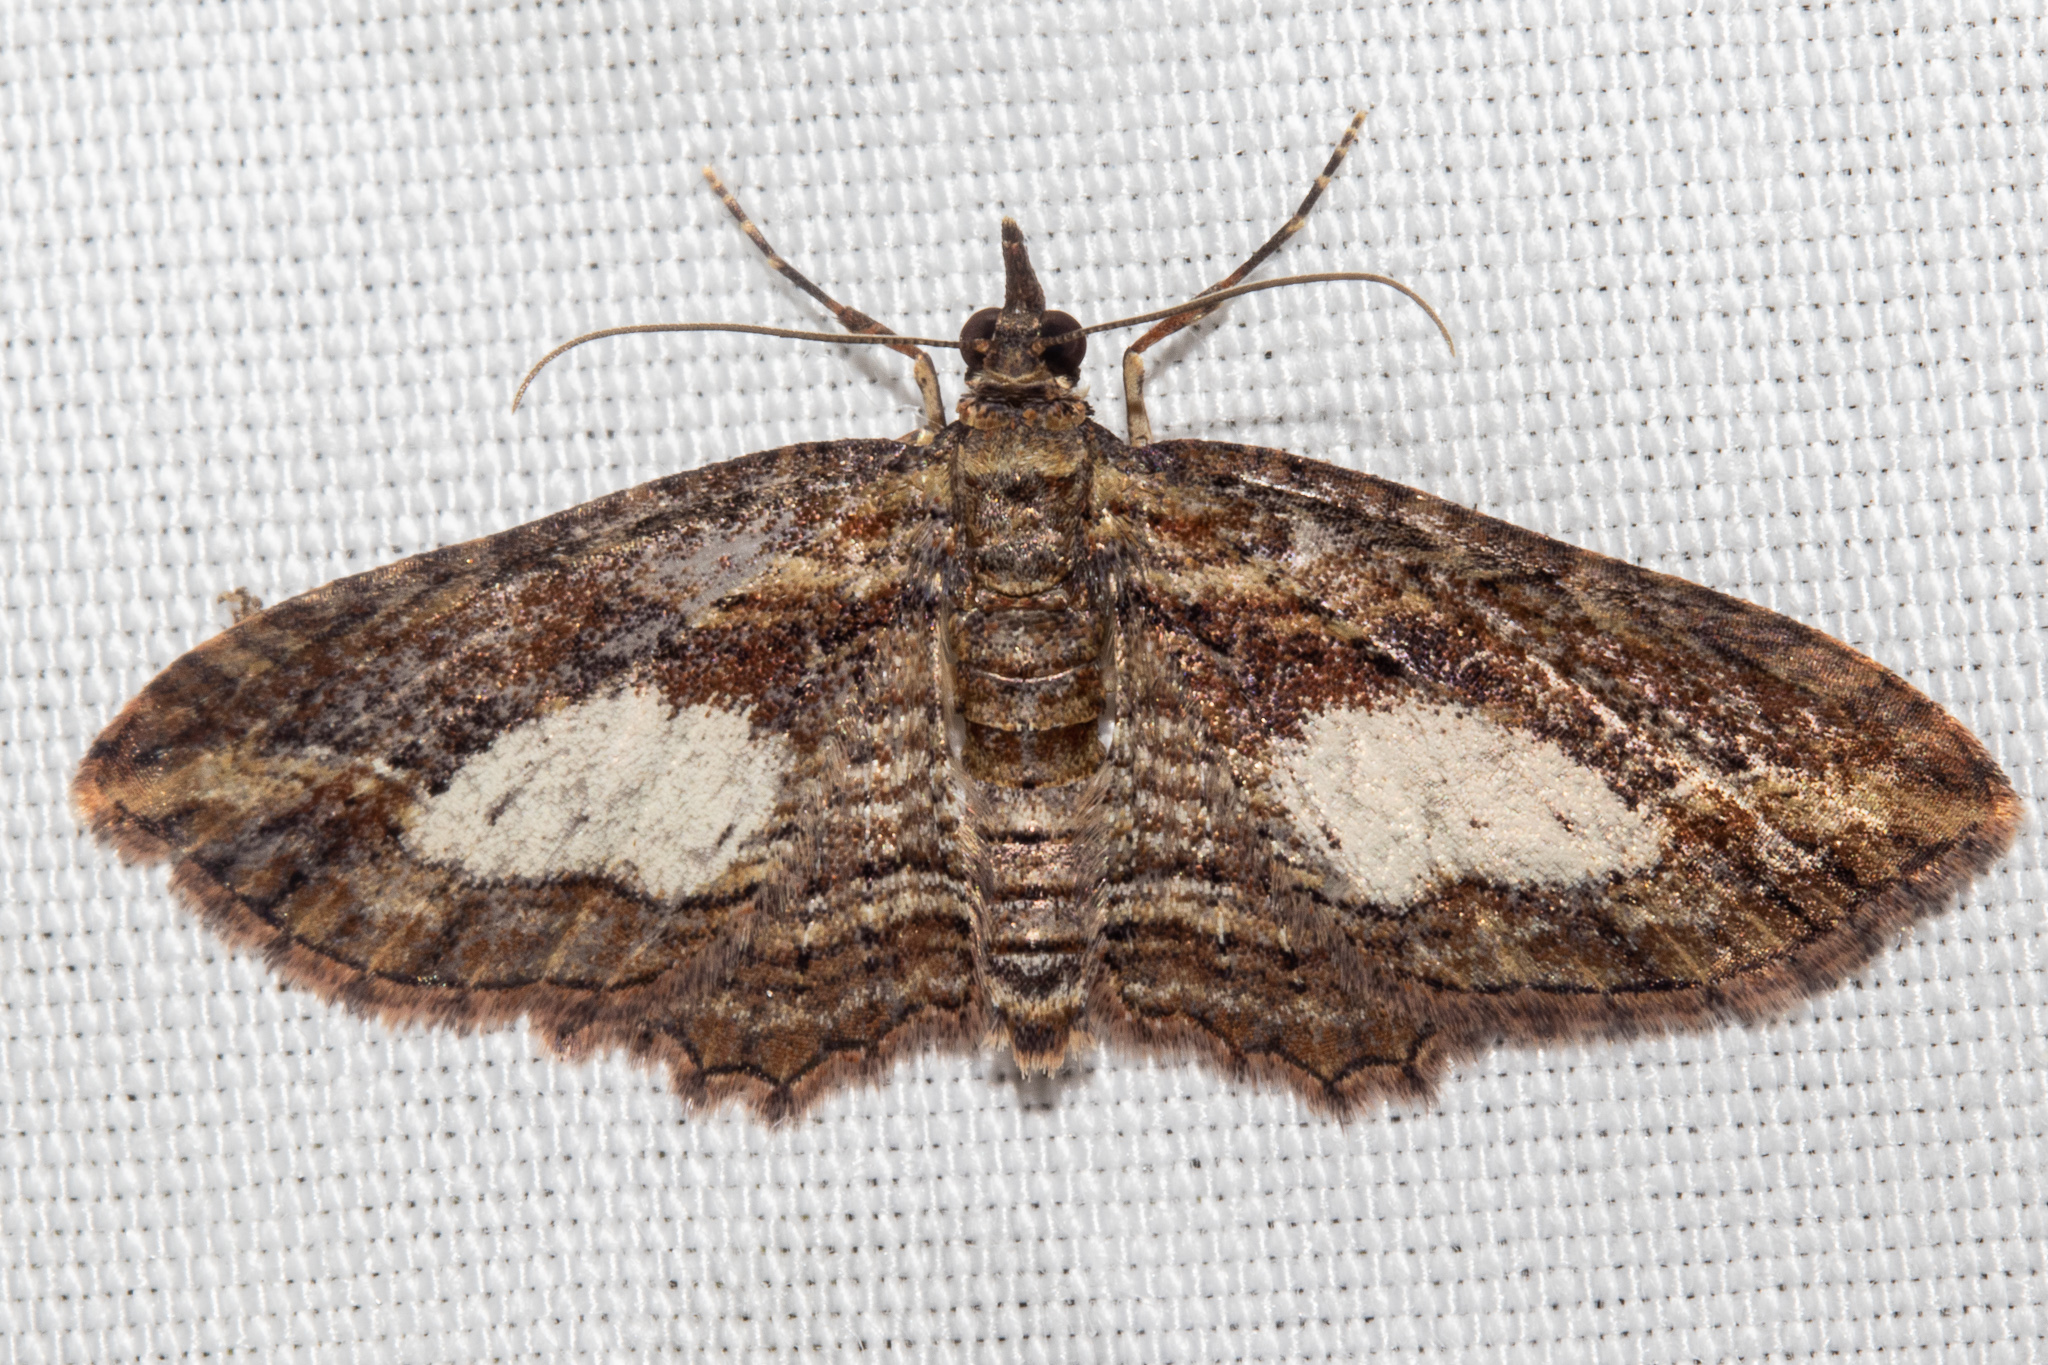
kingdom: Animalia
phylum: Arthropoda
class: Insecta
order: Lepidoptera
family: Geometridae
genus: Chloroclystis
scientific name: Chloroclystis filata
